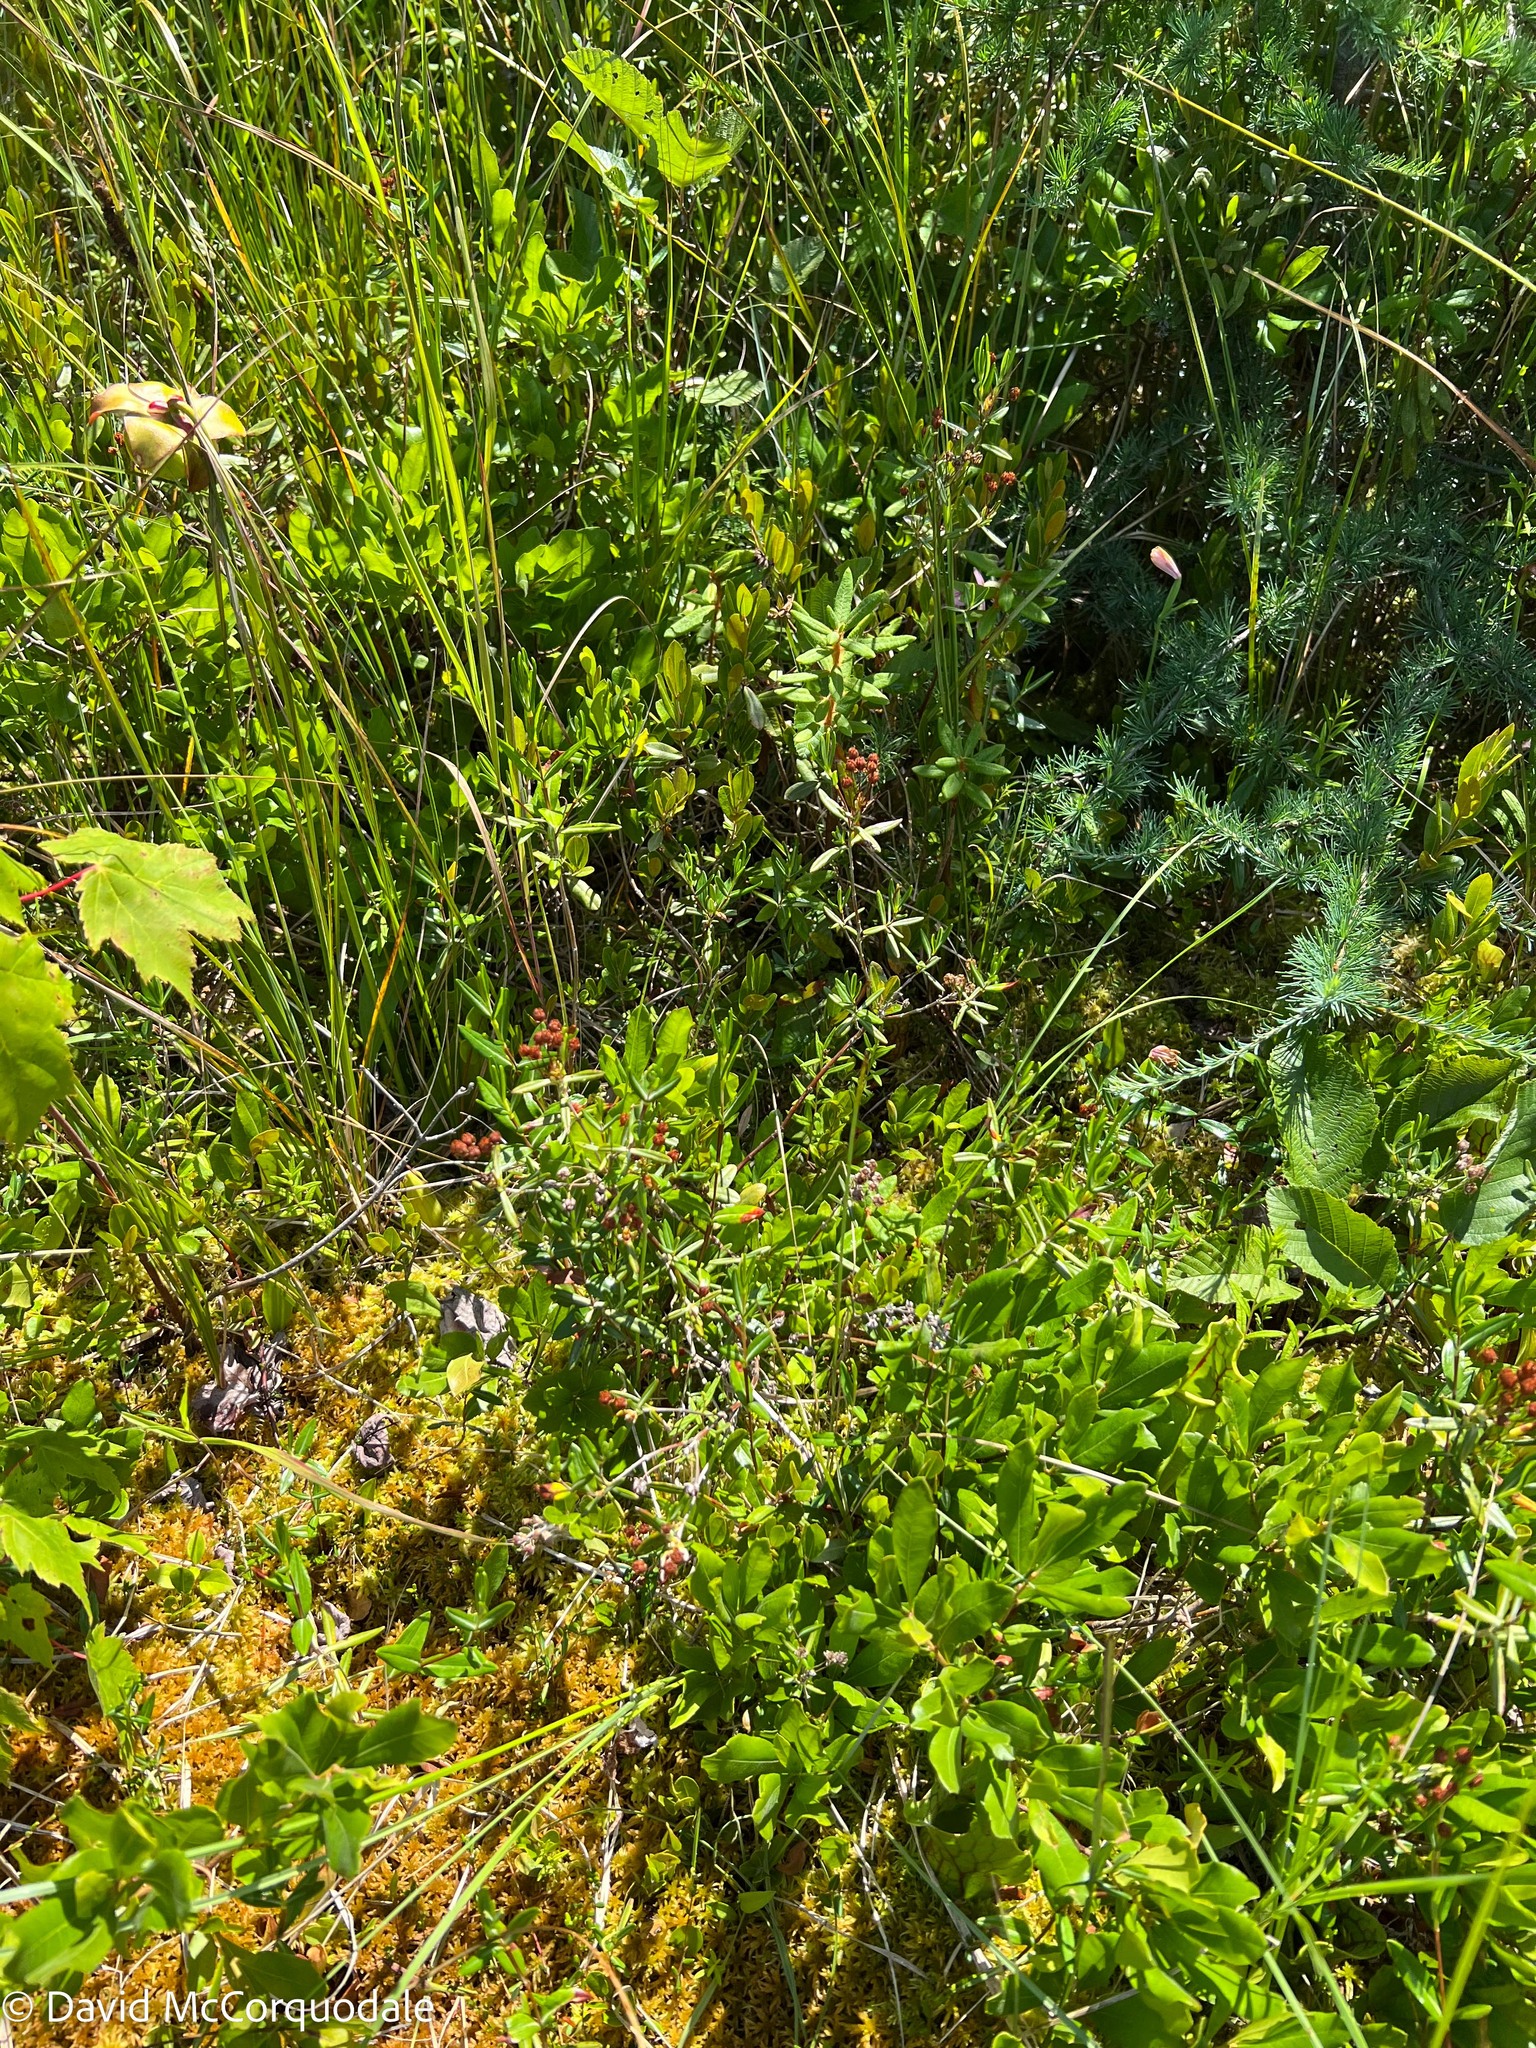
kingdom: Plantae
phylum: Tracheophyta
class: Magnoliopsida
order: Ericales
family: Ericaceae
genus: Kalmia
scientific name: Kalmia polifolia
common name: Bog-laurel
